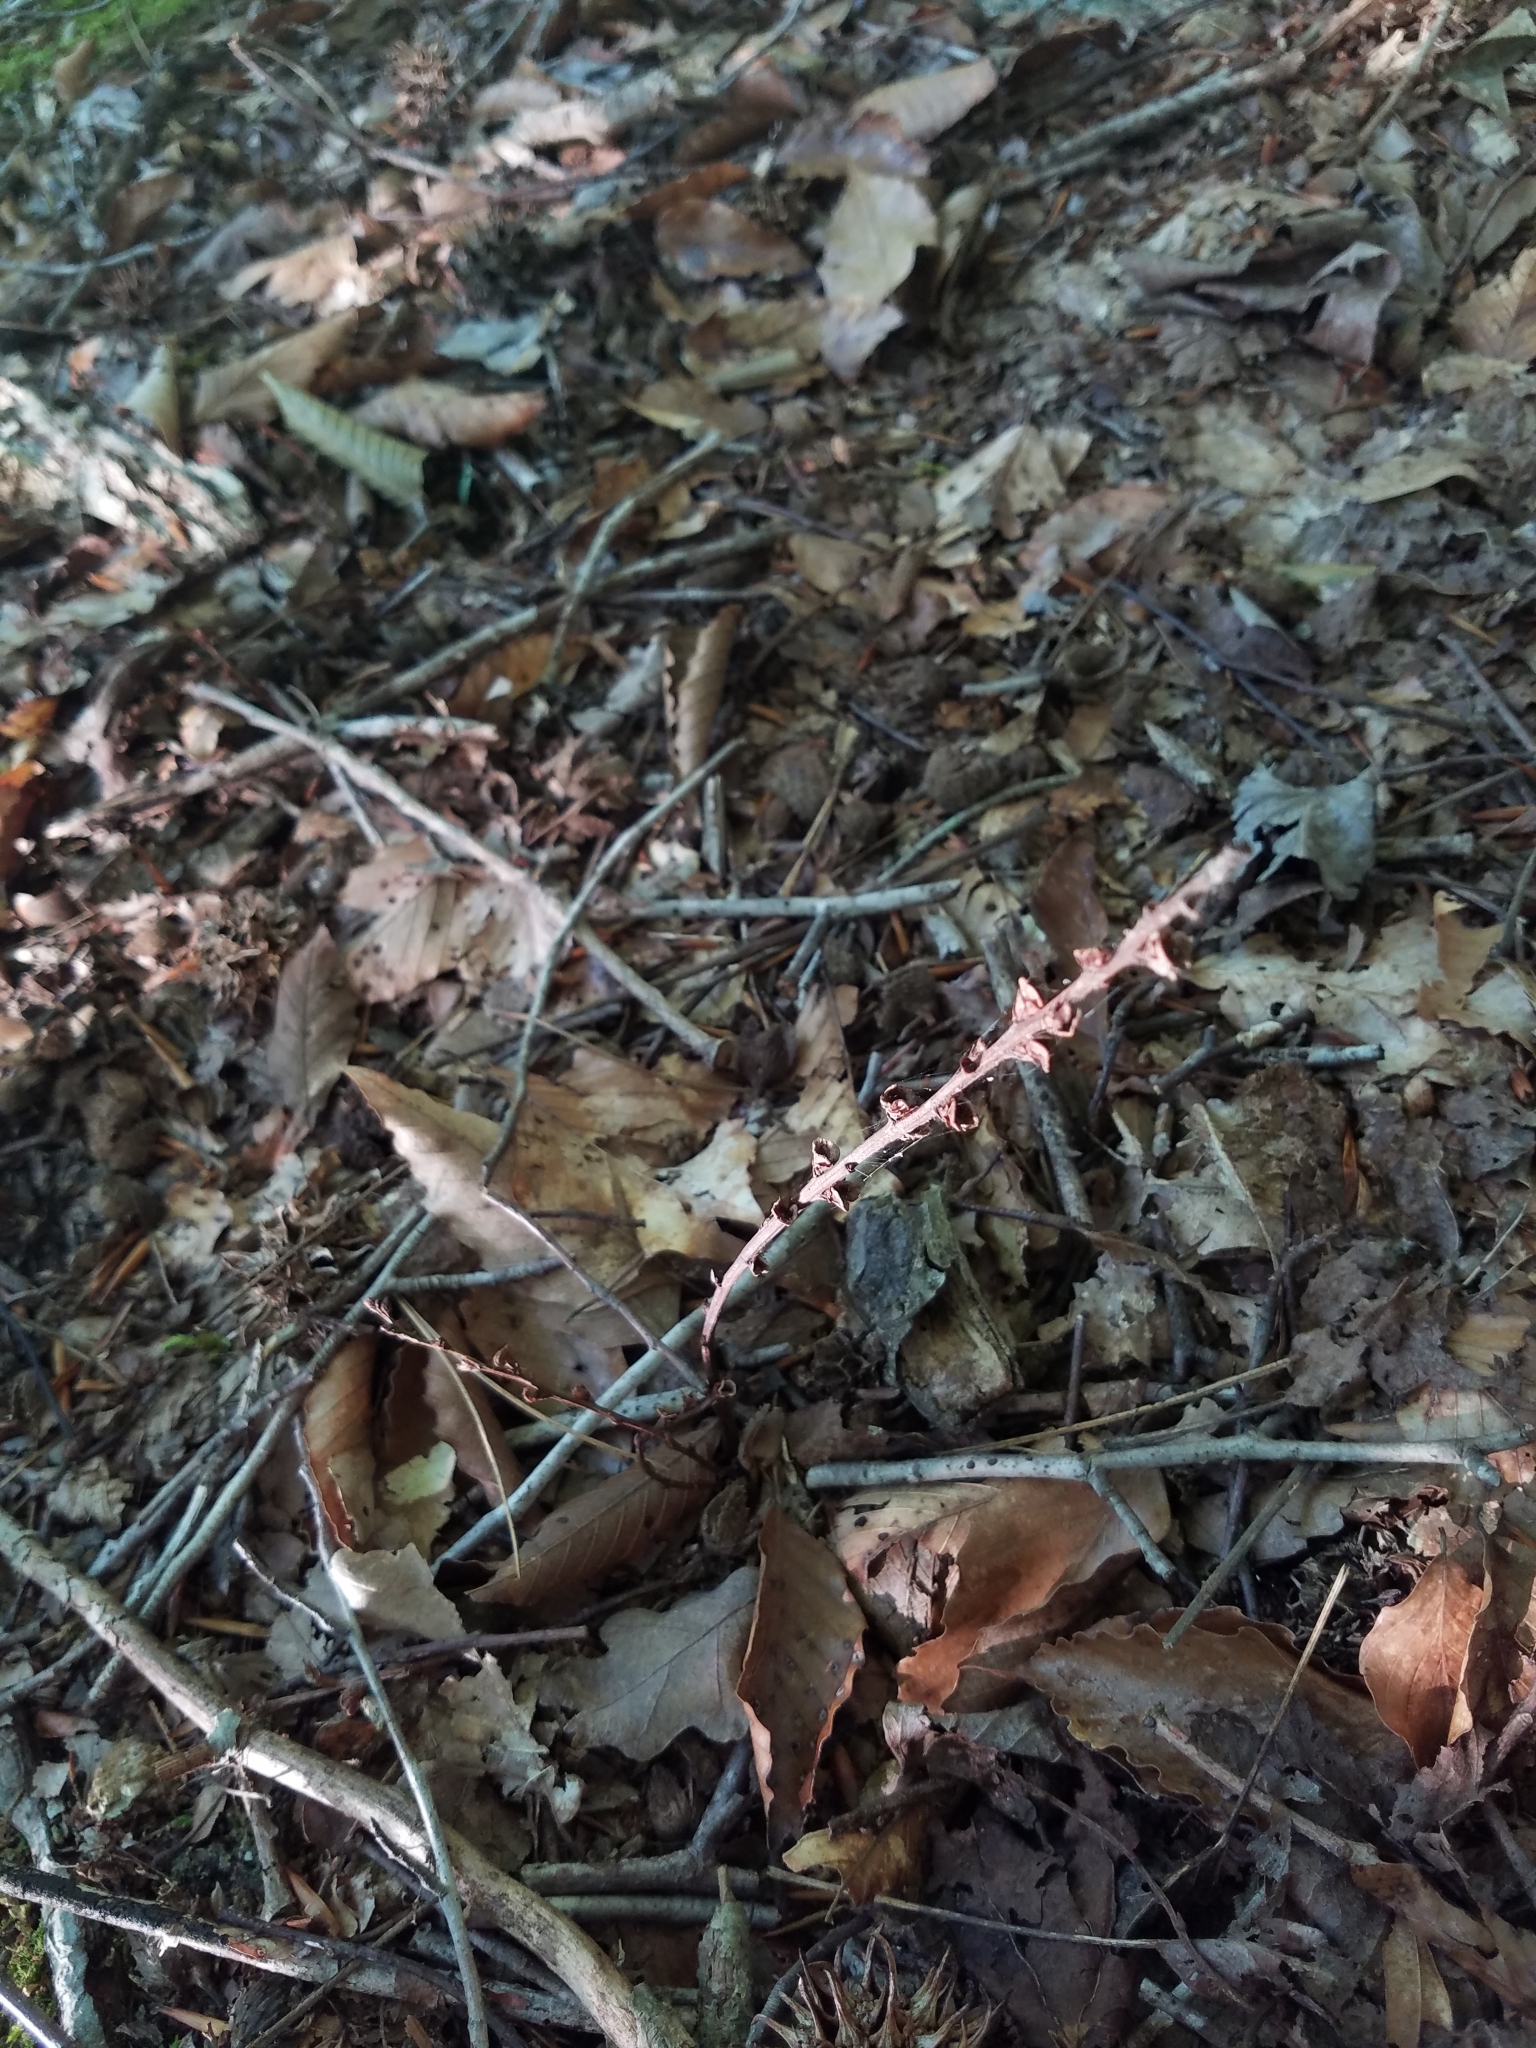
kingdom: Plantae
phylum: Tracheophyta
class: Magnoliopsida
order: Lamiales
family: Orobanchaceae
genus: Epifagus
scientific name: Epifagus virginiana
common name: Beechdrops
